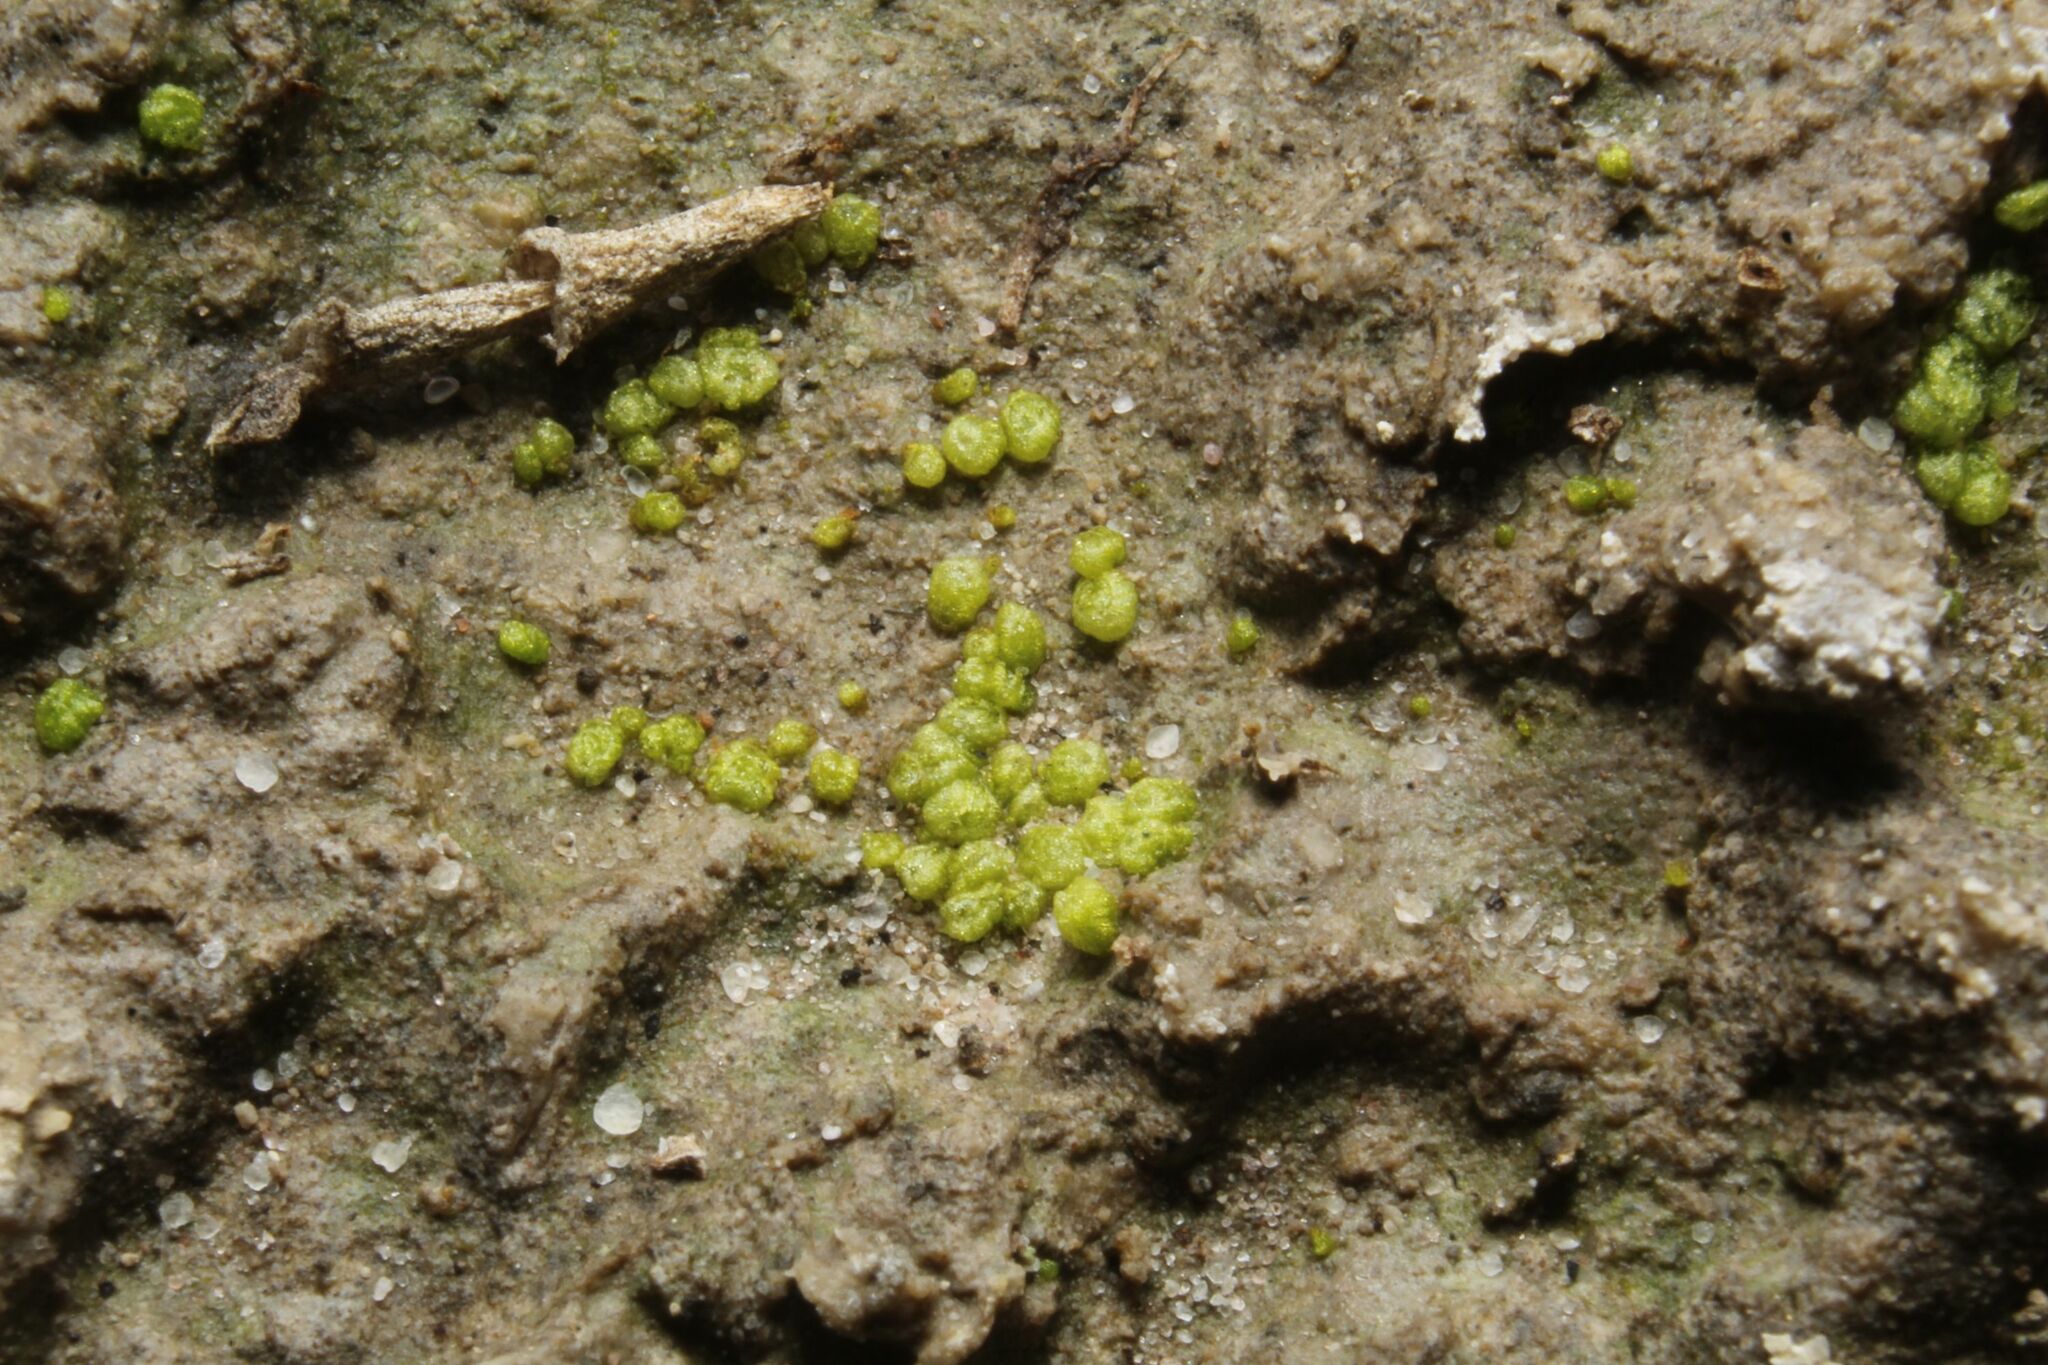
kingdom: Plantae
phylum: Marchantiophyta
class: Marchantiopsida
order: Sphaerocarpales
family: Monocarpaceae
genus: Monocarpus
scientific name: Monocarpus sphaerocarpus
